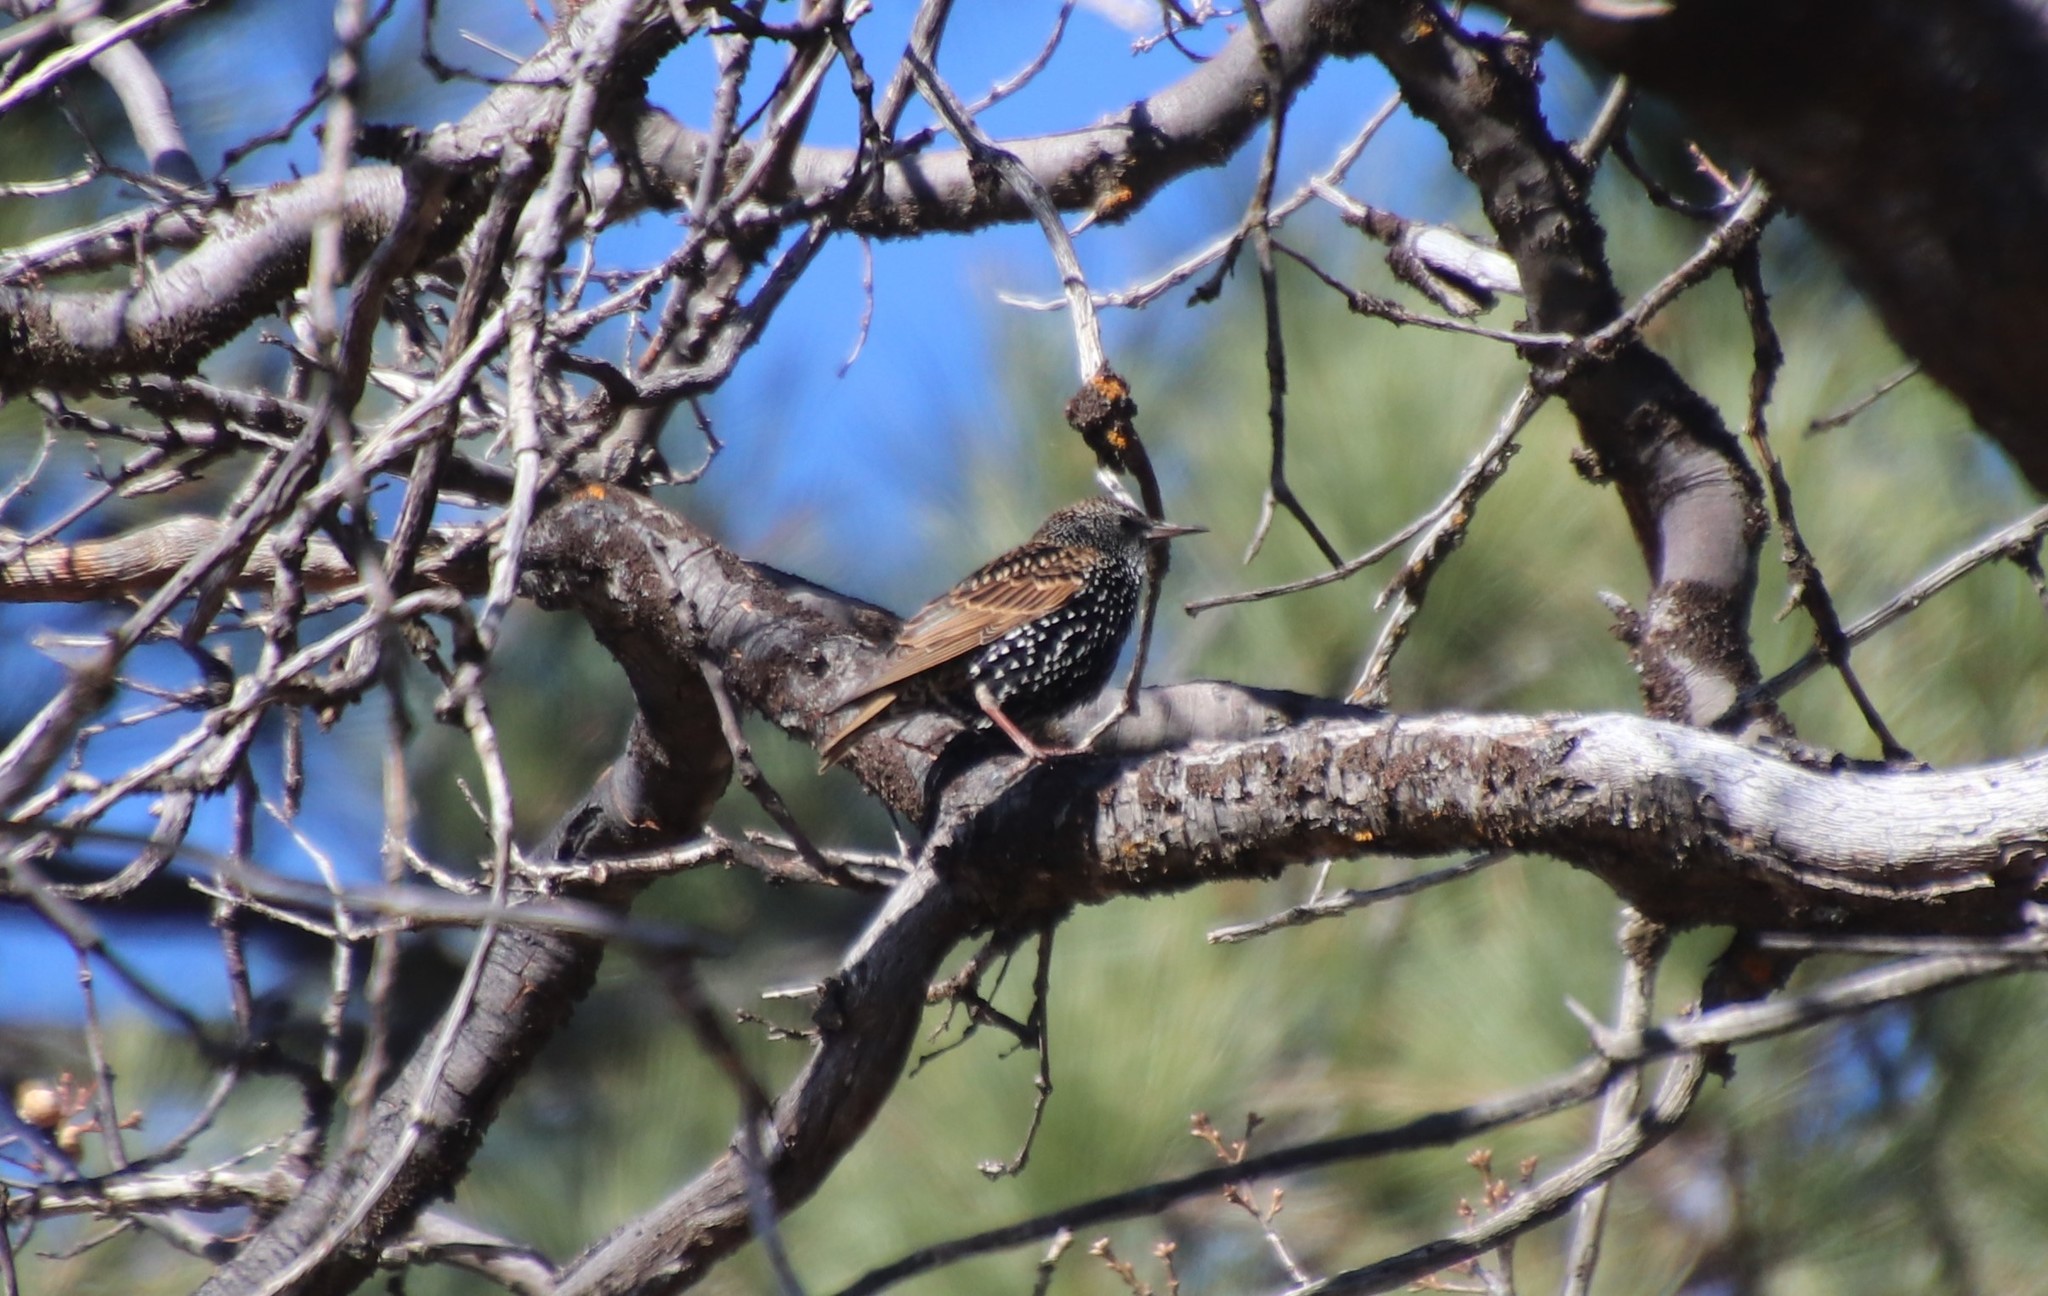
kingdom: Animalia
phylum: Chordata
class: Aves
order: Passeriformes
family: Sturnidae
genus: Sturnus
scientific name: Sturnus vulgaris
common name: Common starling
